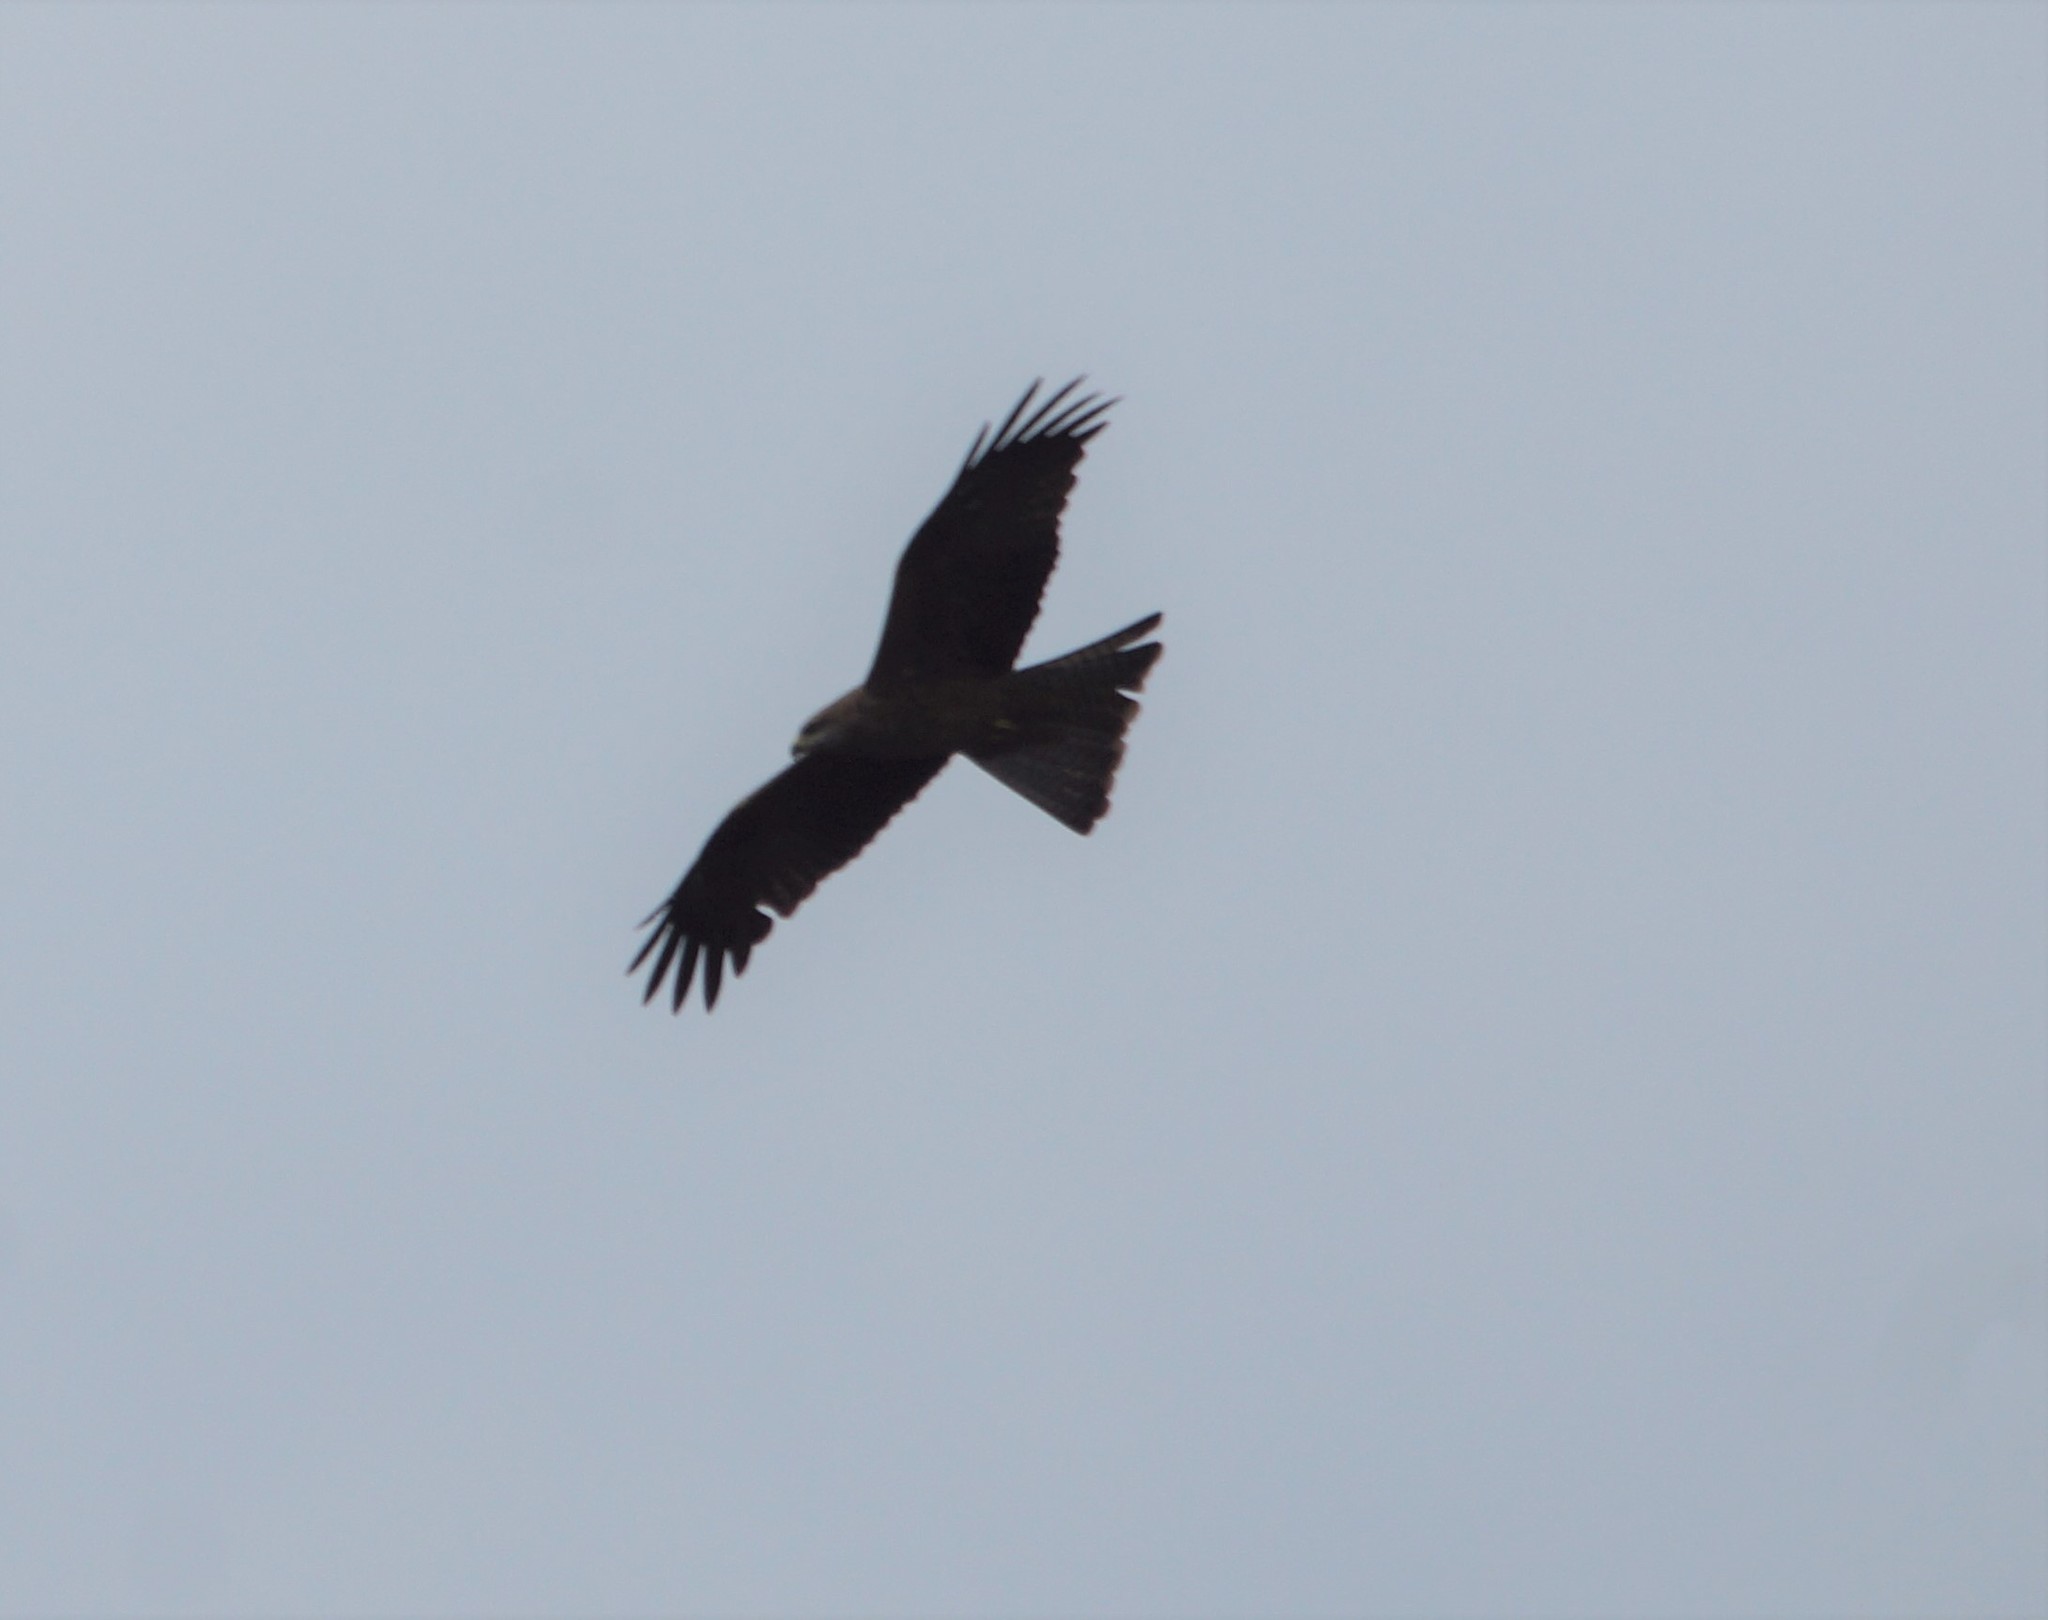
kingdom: Animalia
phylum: Chordata
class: Aves
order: Accipitriformes
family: Accipitridae
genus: Milvus
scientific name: Milvus migrans
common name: Black kite
